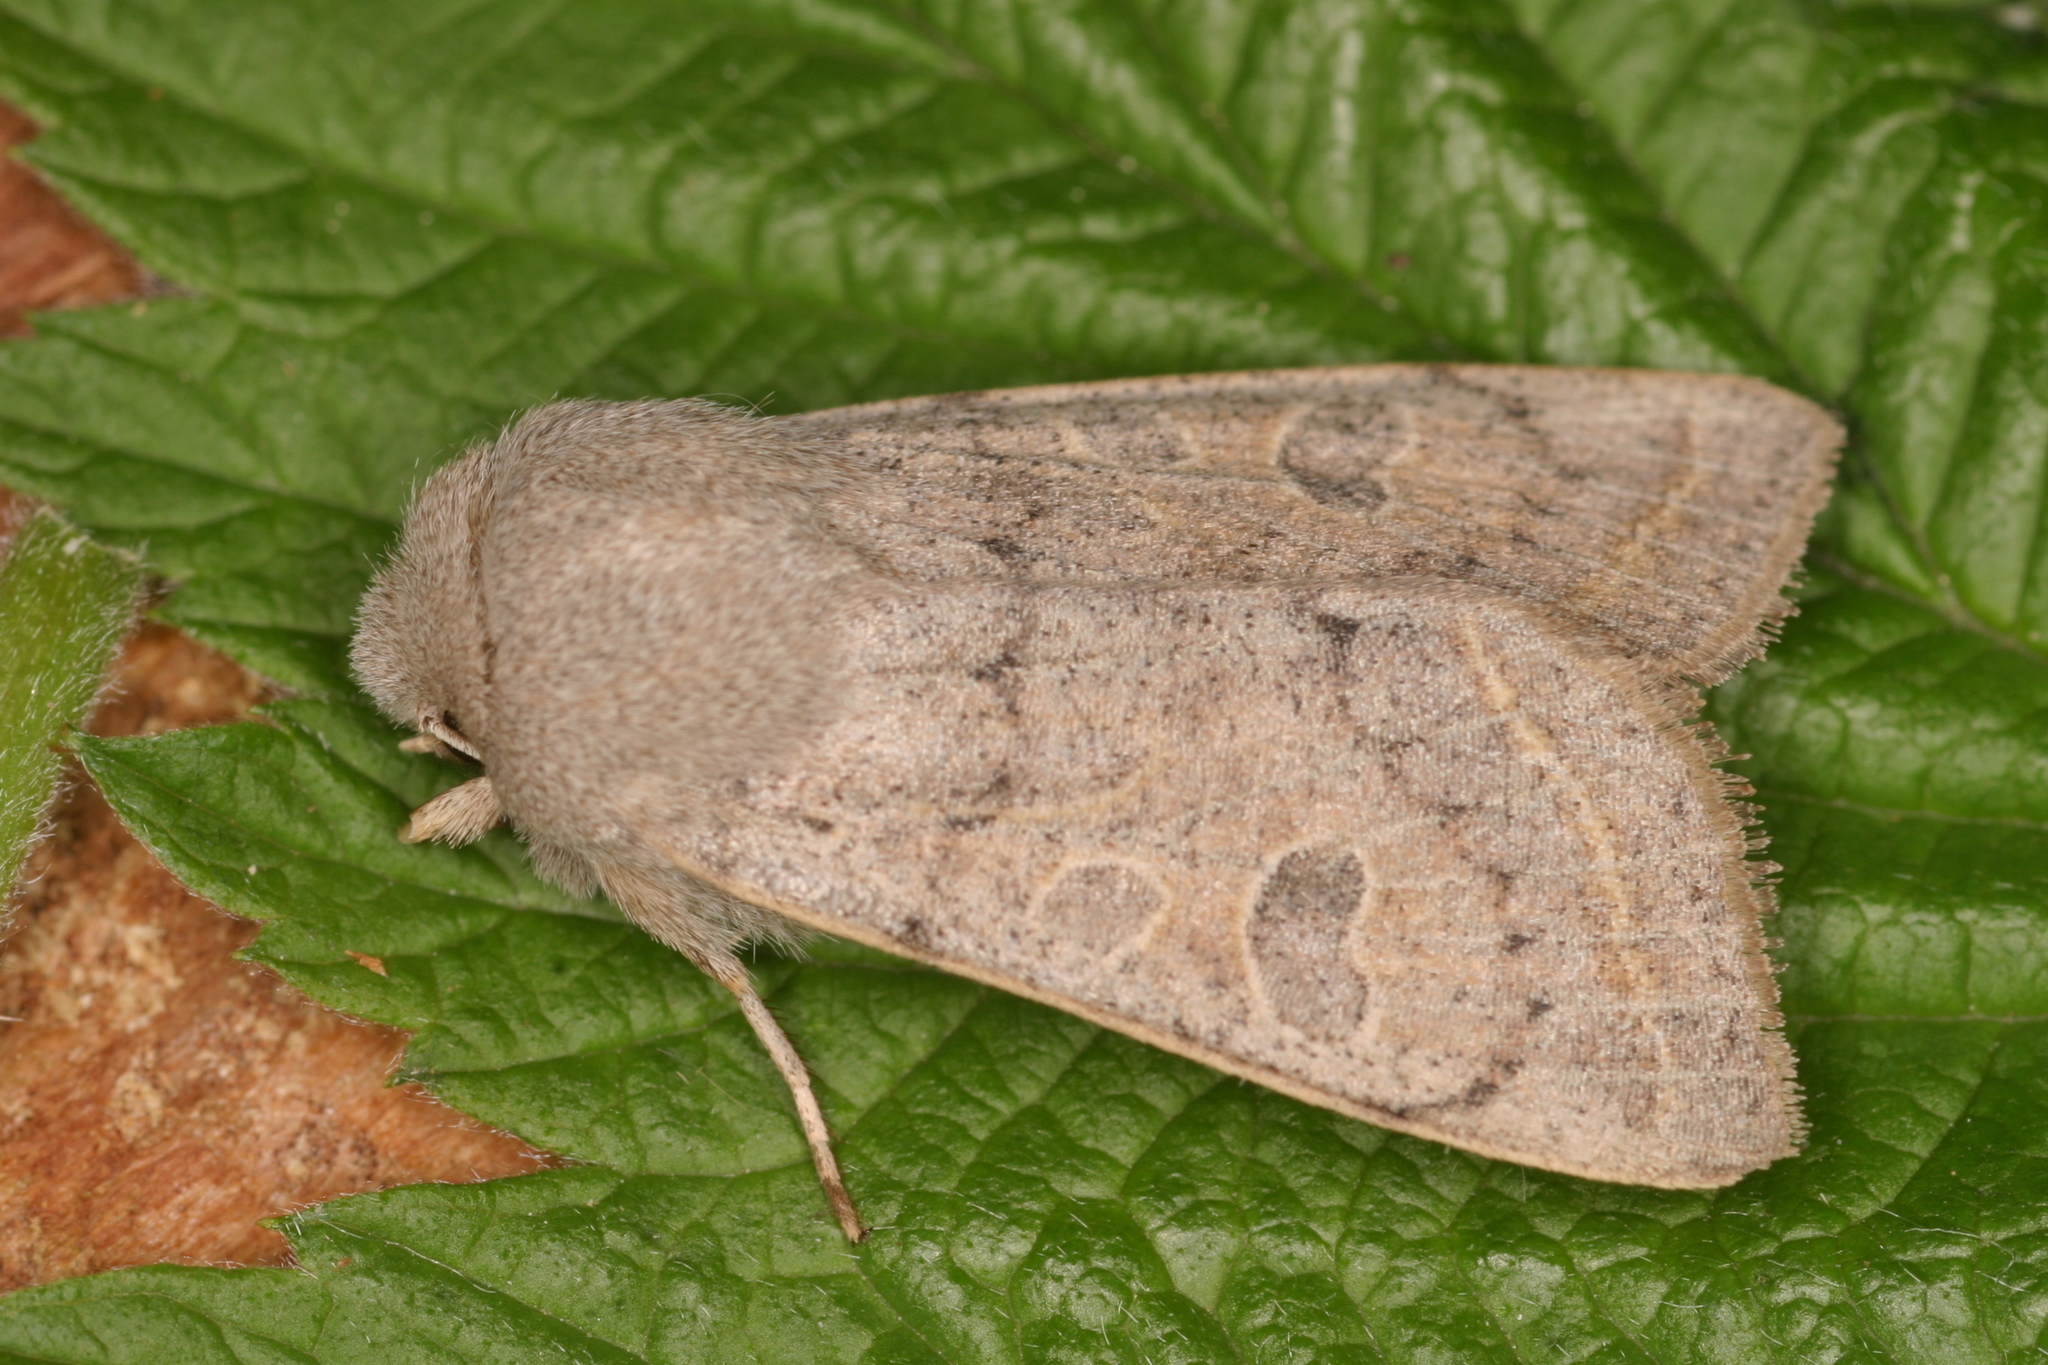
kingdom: Animalia
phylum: Arthropoda
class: Insecta
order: Lepidoptera
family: Noctuidae
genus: Orthosia
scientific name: Orthosia gracilis
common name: Powdered quaker
